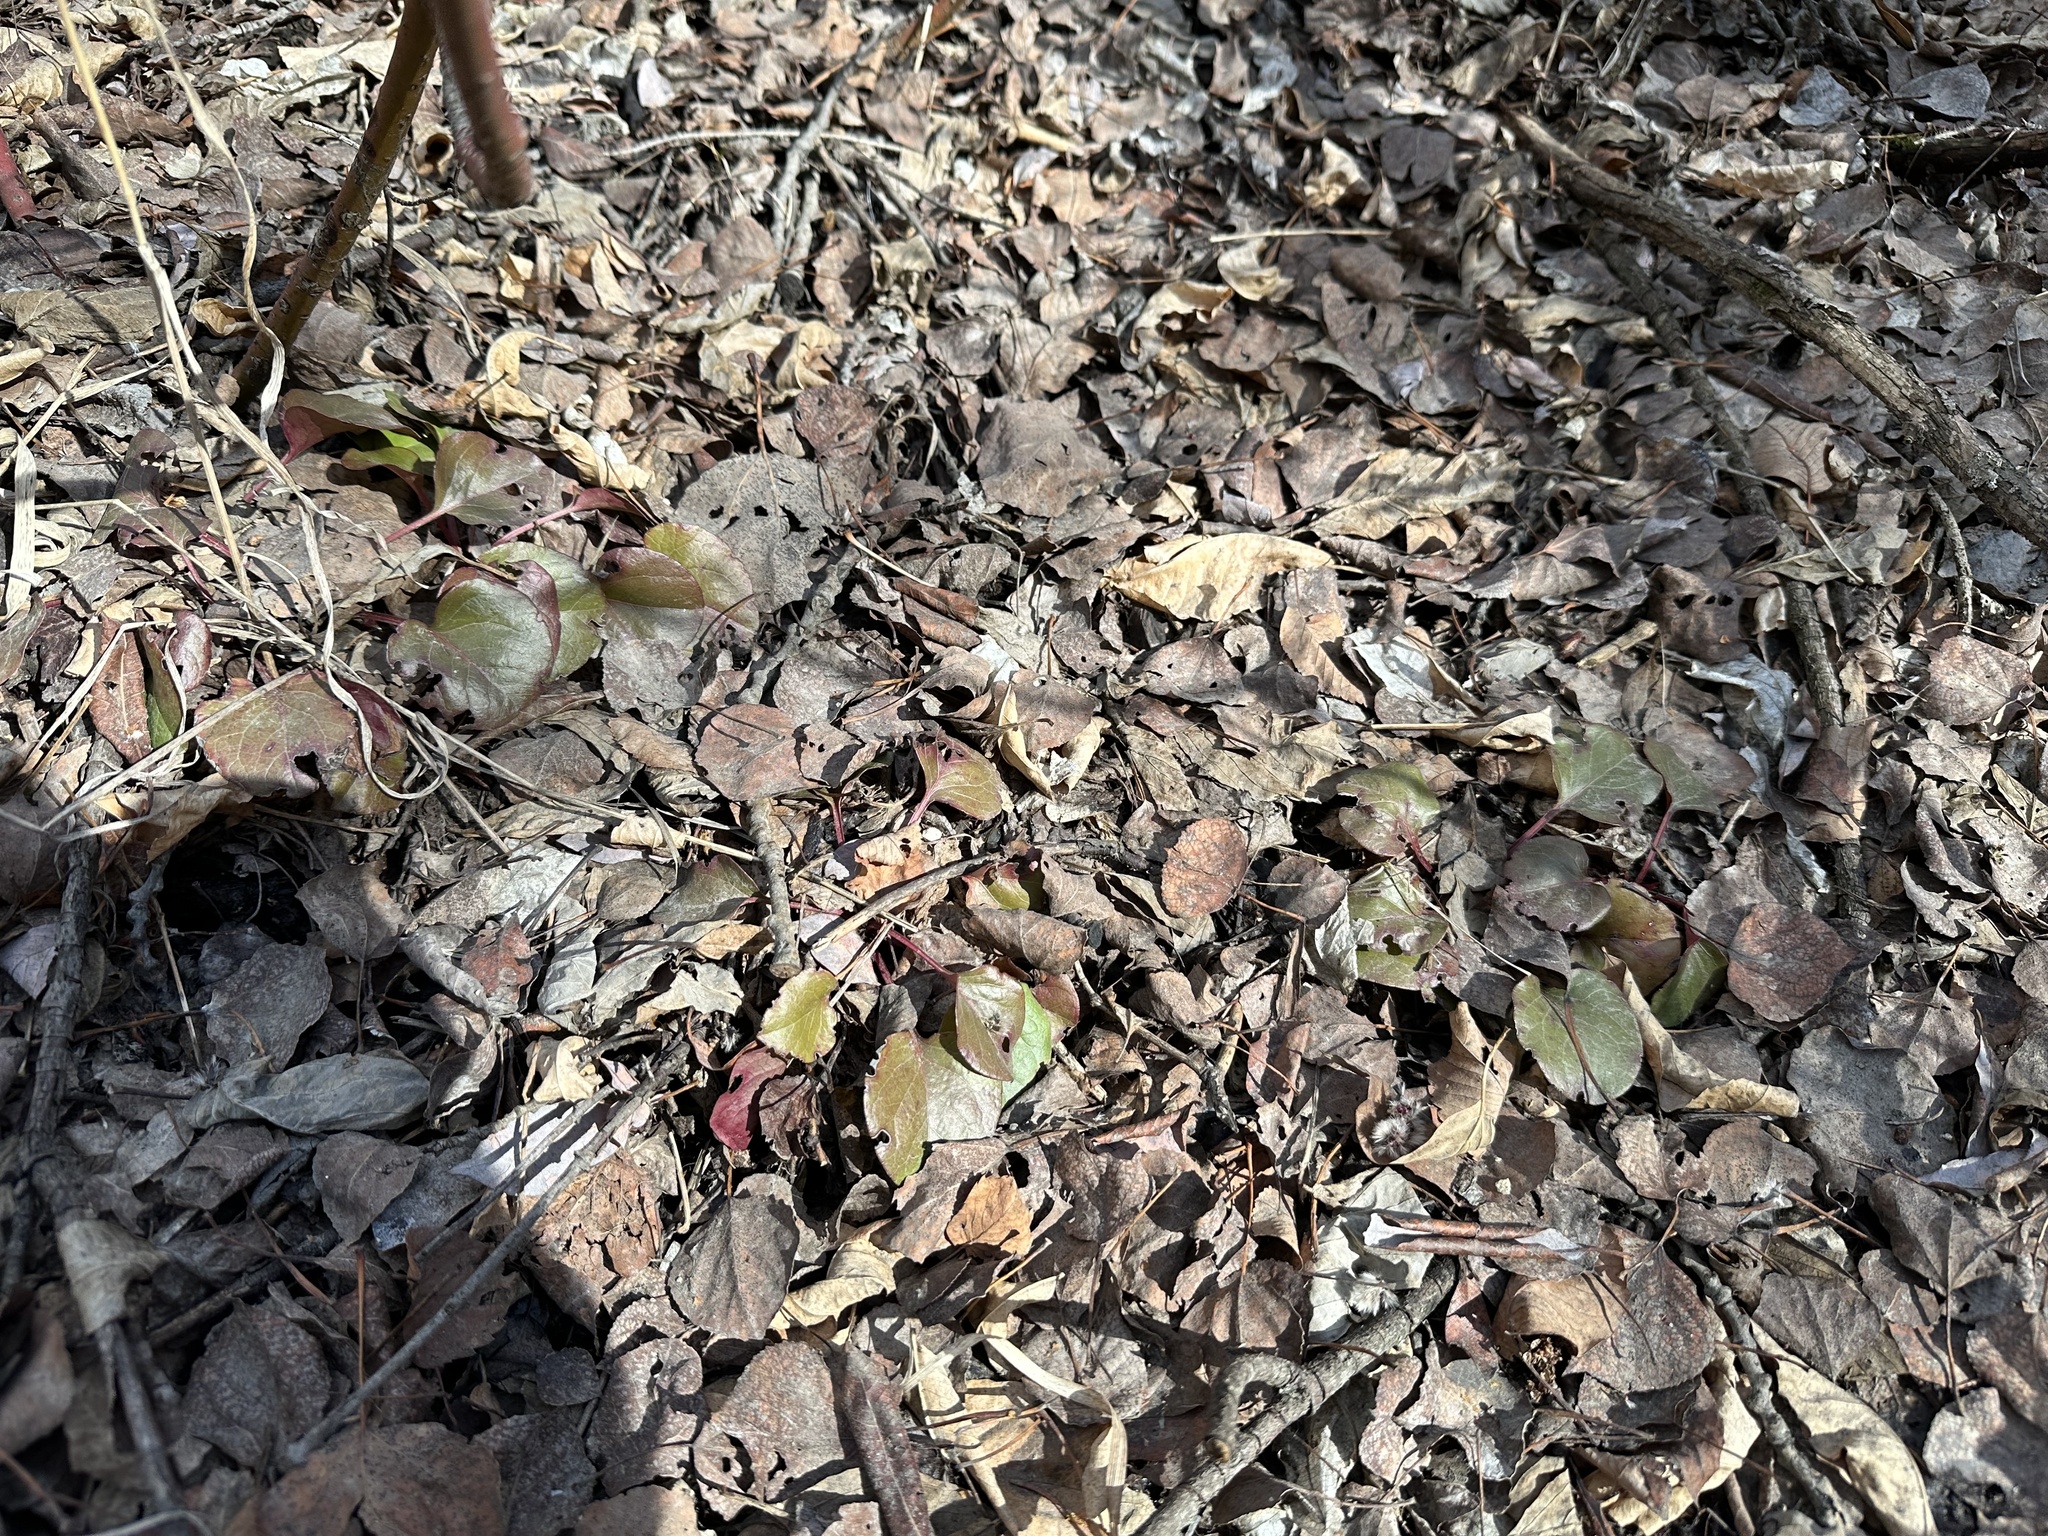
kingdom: Plantae
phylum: Tracheophyta
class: Magnoliopsida
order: Ericales
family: Ericaceae
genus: Pyrola
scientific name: Pyrola asarifolia
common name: Bog wintergreen
